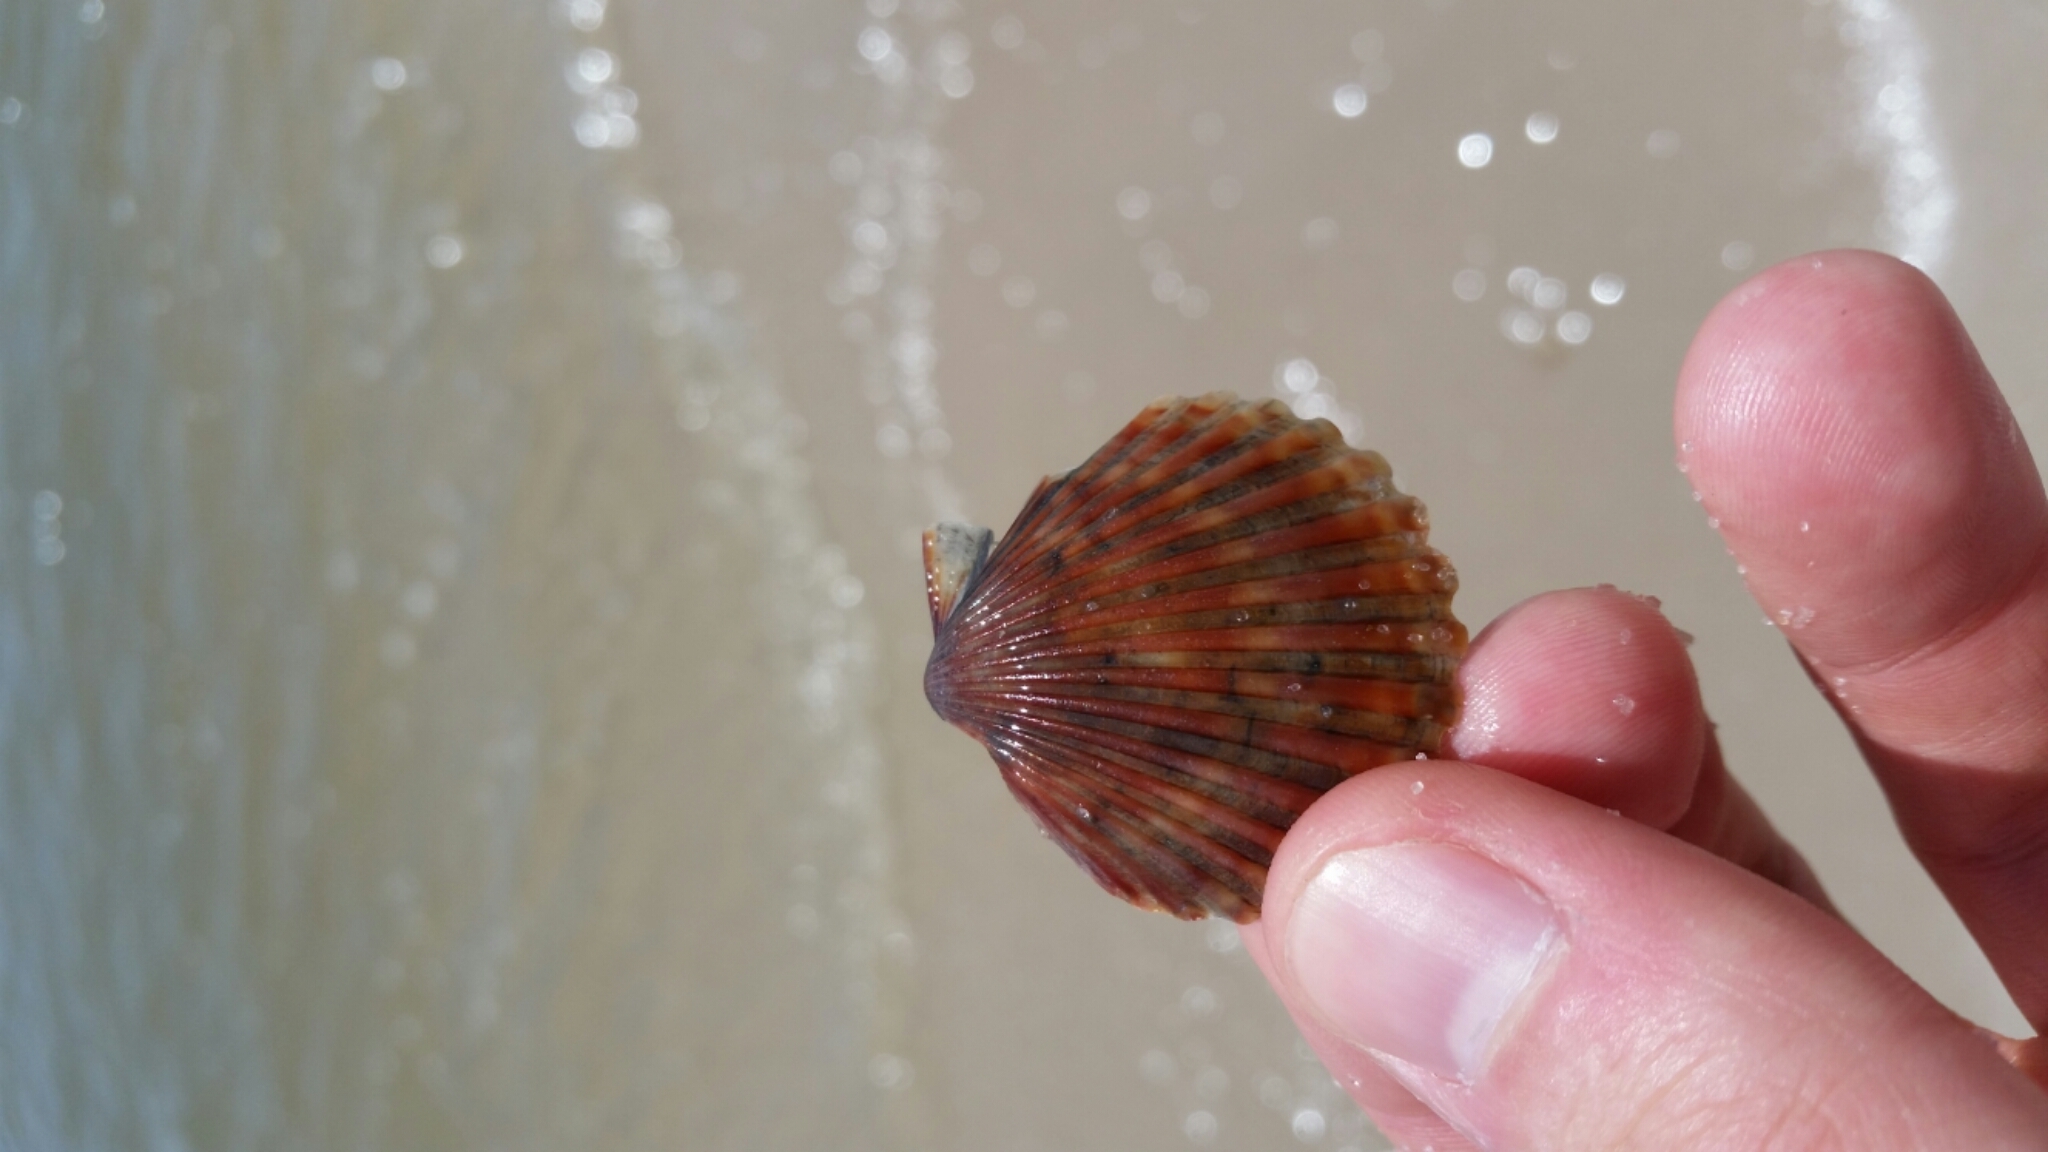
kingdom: Animalia
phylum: Mollusca
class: Bivalvia
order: Pectinida
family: Pectinidae
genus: Argopecten
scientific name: Argopecten irradians
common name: Atlantic bay scallop
